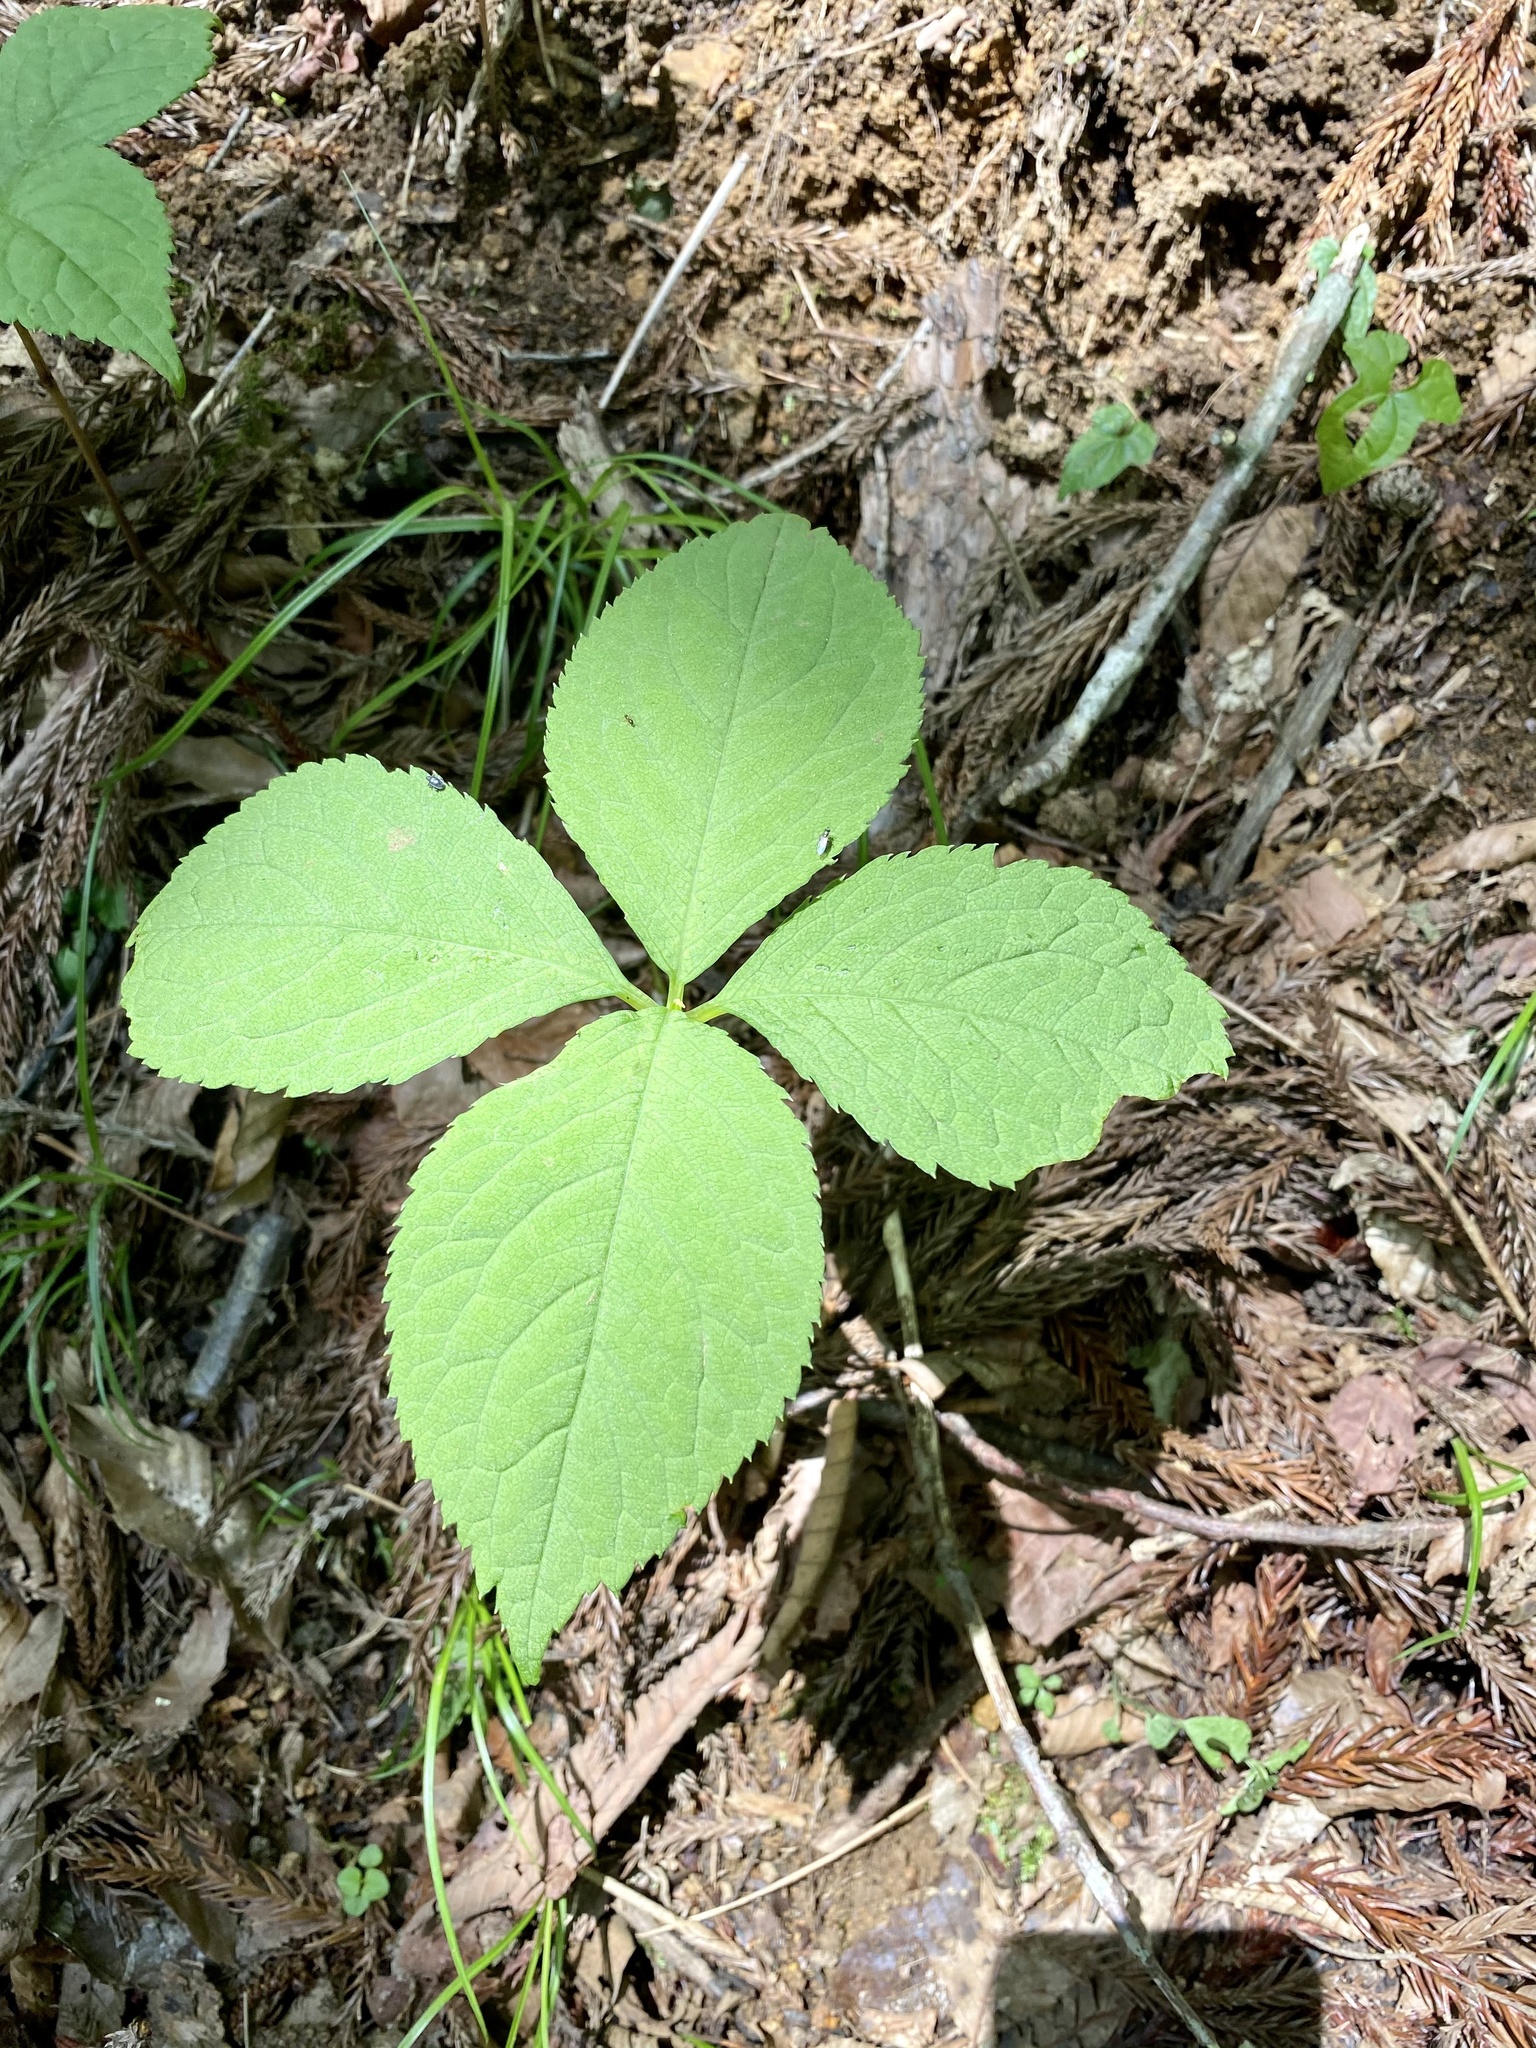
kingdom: Plantae
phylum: Tracheophyta
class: Magnoliopsida
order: Chloranthales
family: Chloranthaceae
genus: Chloranthus
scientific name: Chloranthus serratus
